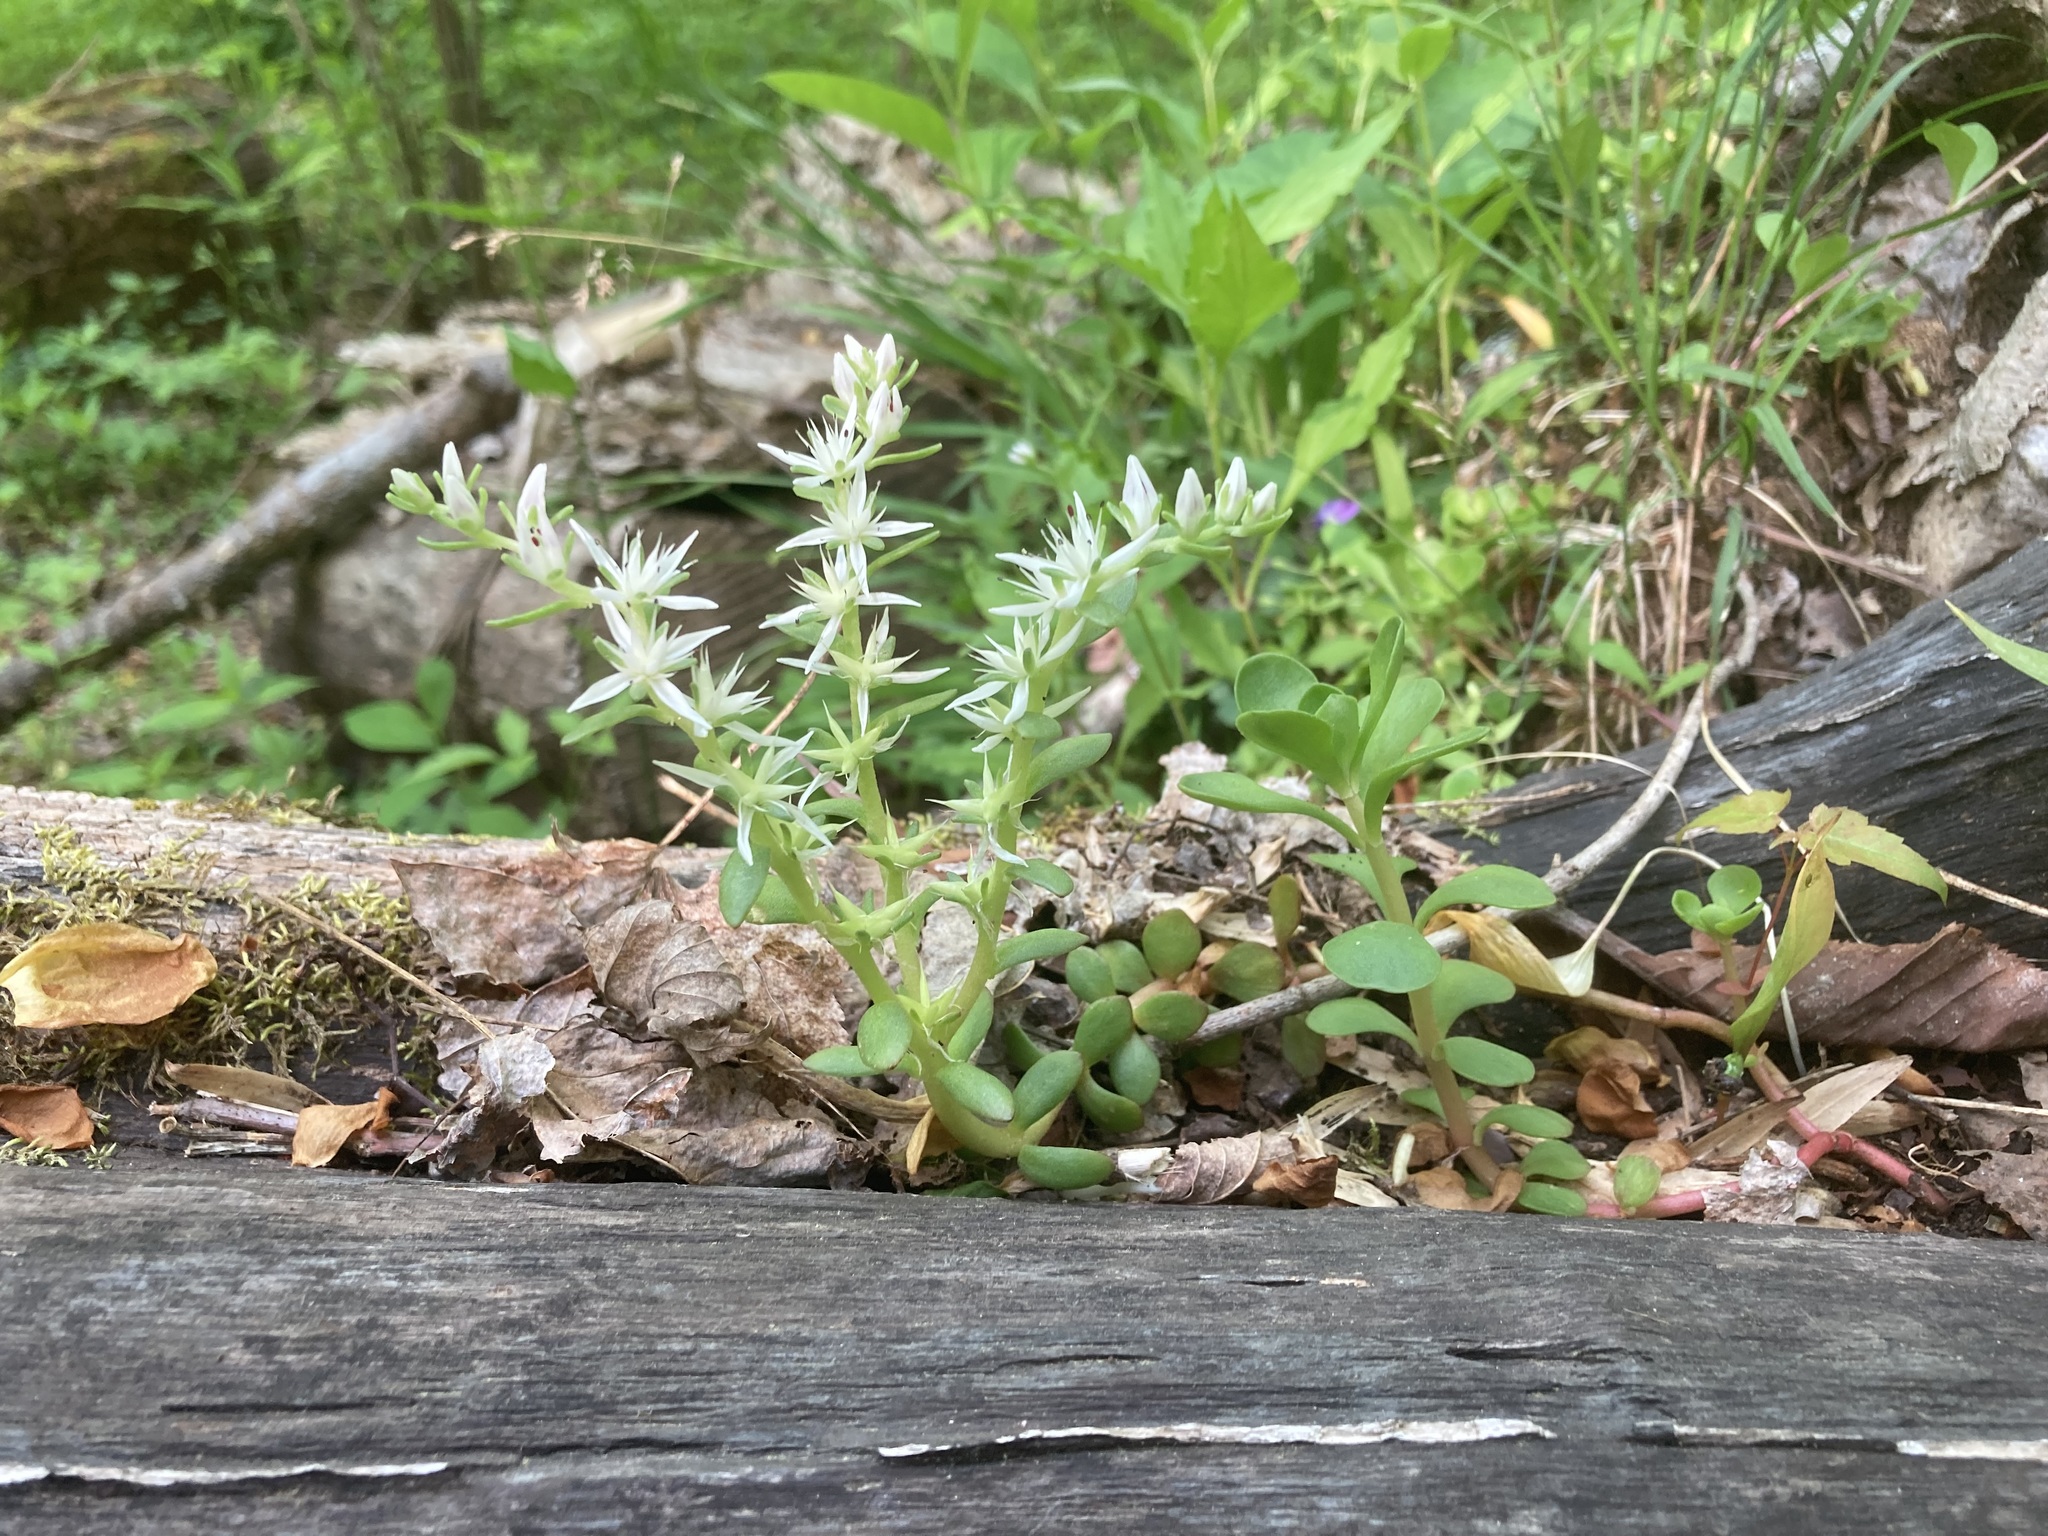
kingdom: Plantae
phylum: Tracheophyta
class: Magnoliopsida
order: Saxifragales
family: Crassulaceae
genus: Sedum
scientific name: Sedum ternatum
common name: Wild stonecrop
